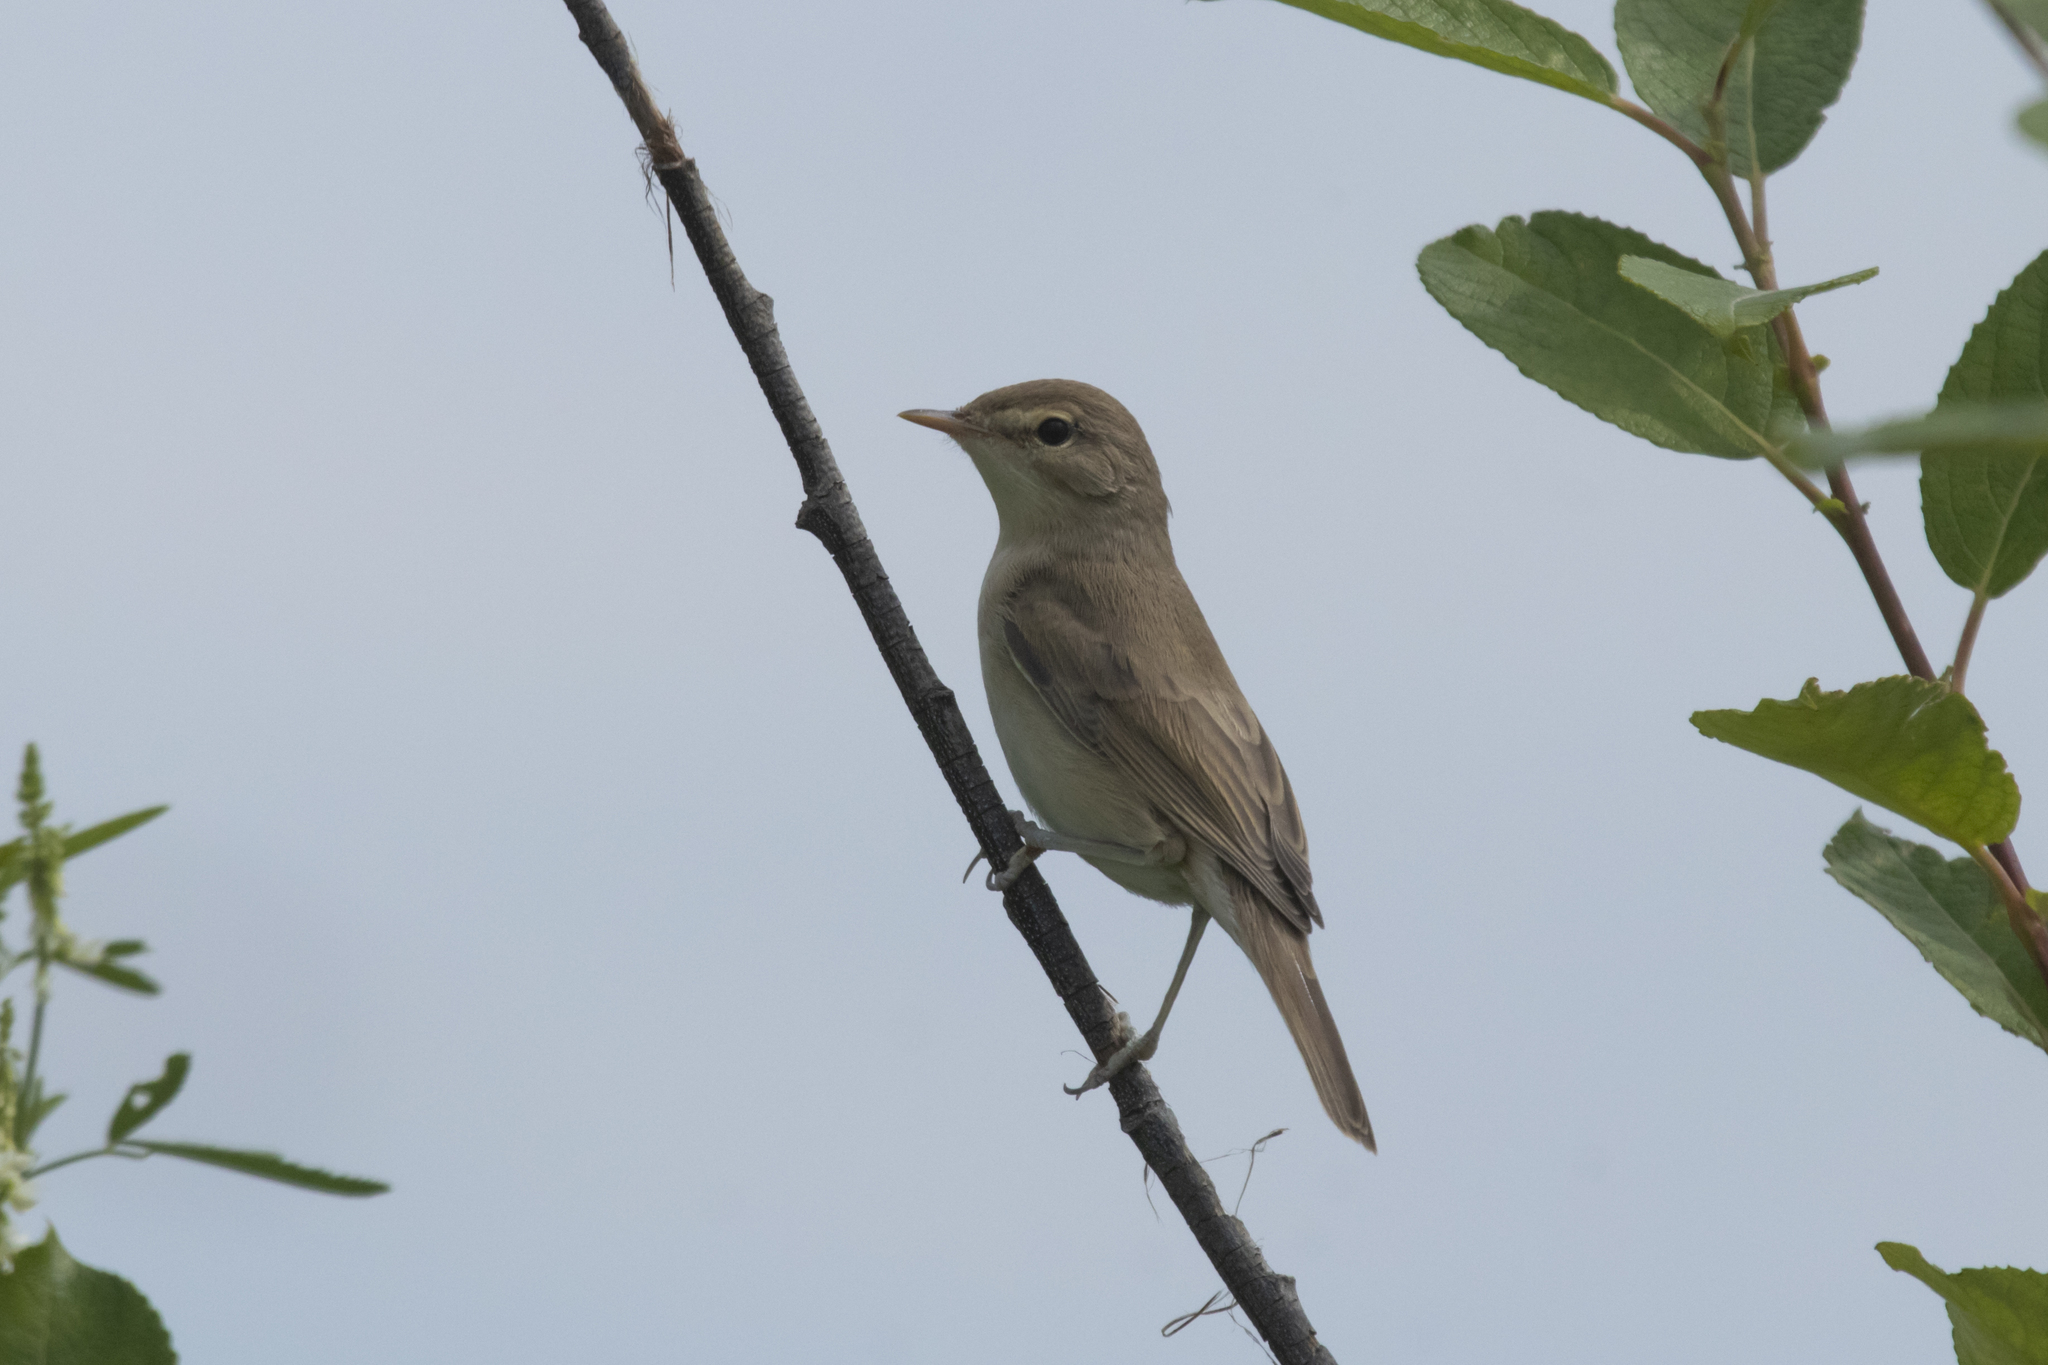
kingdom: Animalia
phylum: Chordata
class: Aves
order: Passeriformes
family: Acrocephalidae
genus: Iduna
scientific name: Iduna caligata
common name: Booted warbler
